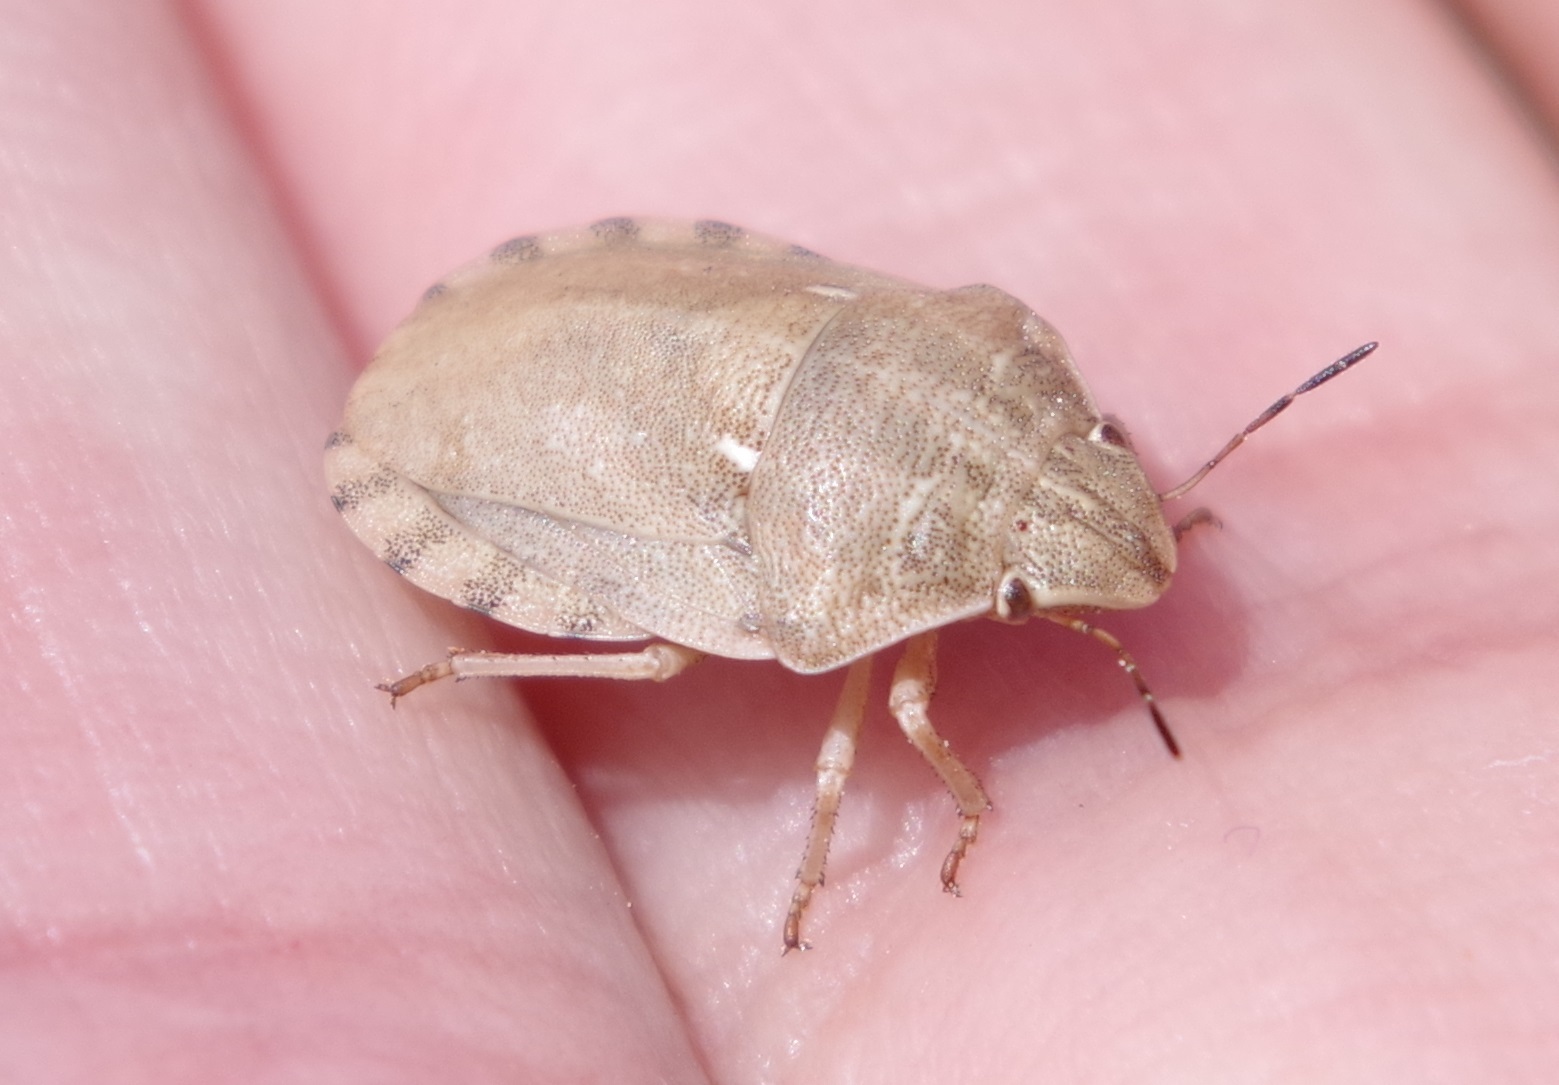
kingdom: Animalia
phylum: Arthropoda
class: Insecta
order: Hemiptera
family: Scutelleridae
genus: Eurygaster
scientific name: Eurygaster testudinaria
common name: Tortoise bug
